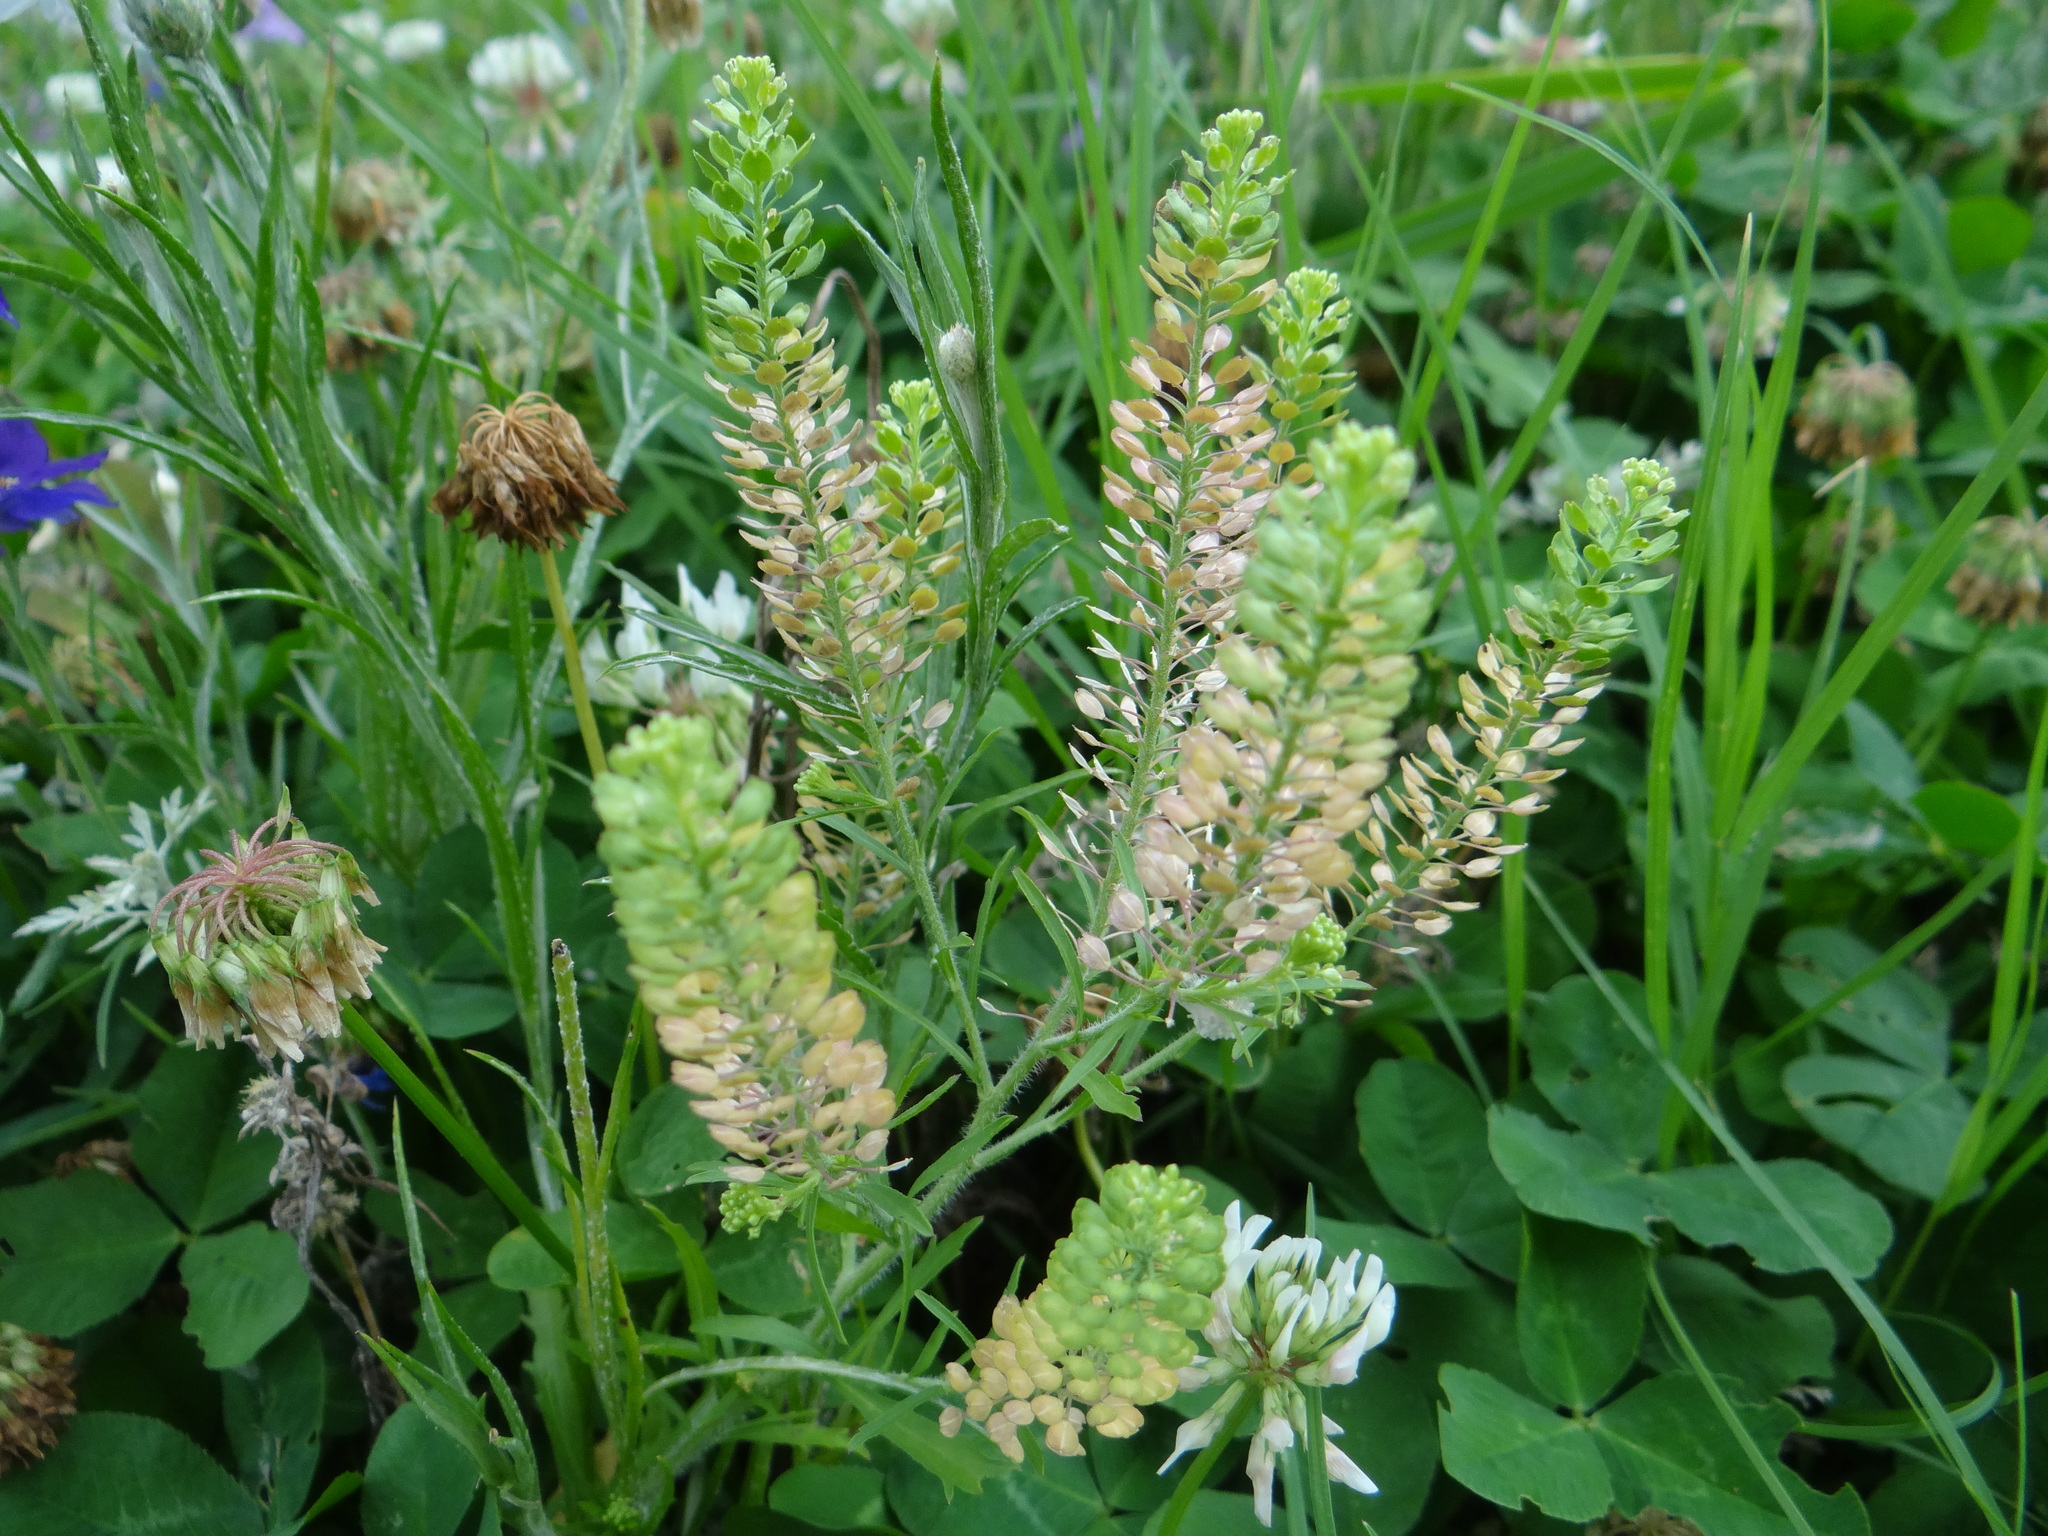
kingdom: Plantae
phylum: Tracheophyta
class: Magnoliopsida
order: Brassicales
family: Brassicaceae
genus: Lepidium
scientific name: Lepidium virginicum
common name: Least pepperwort
